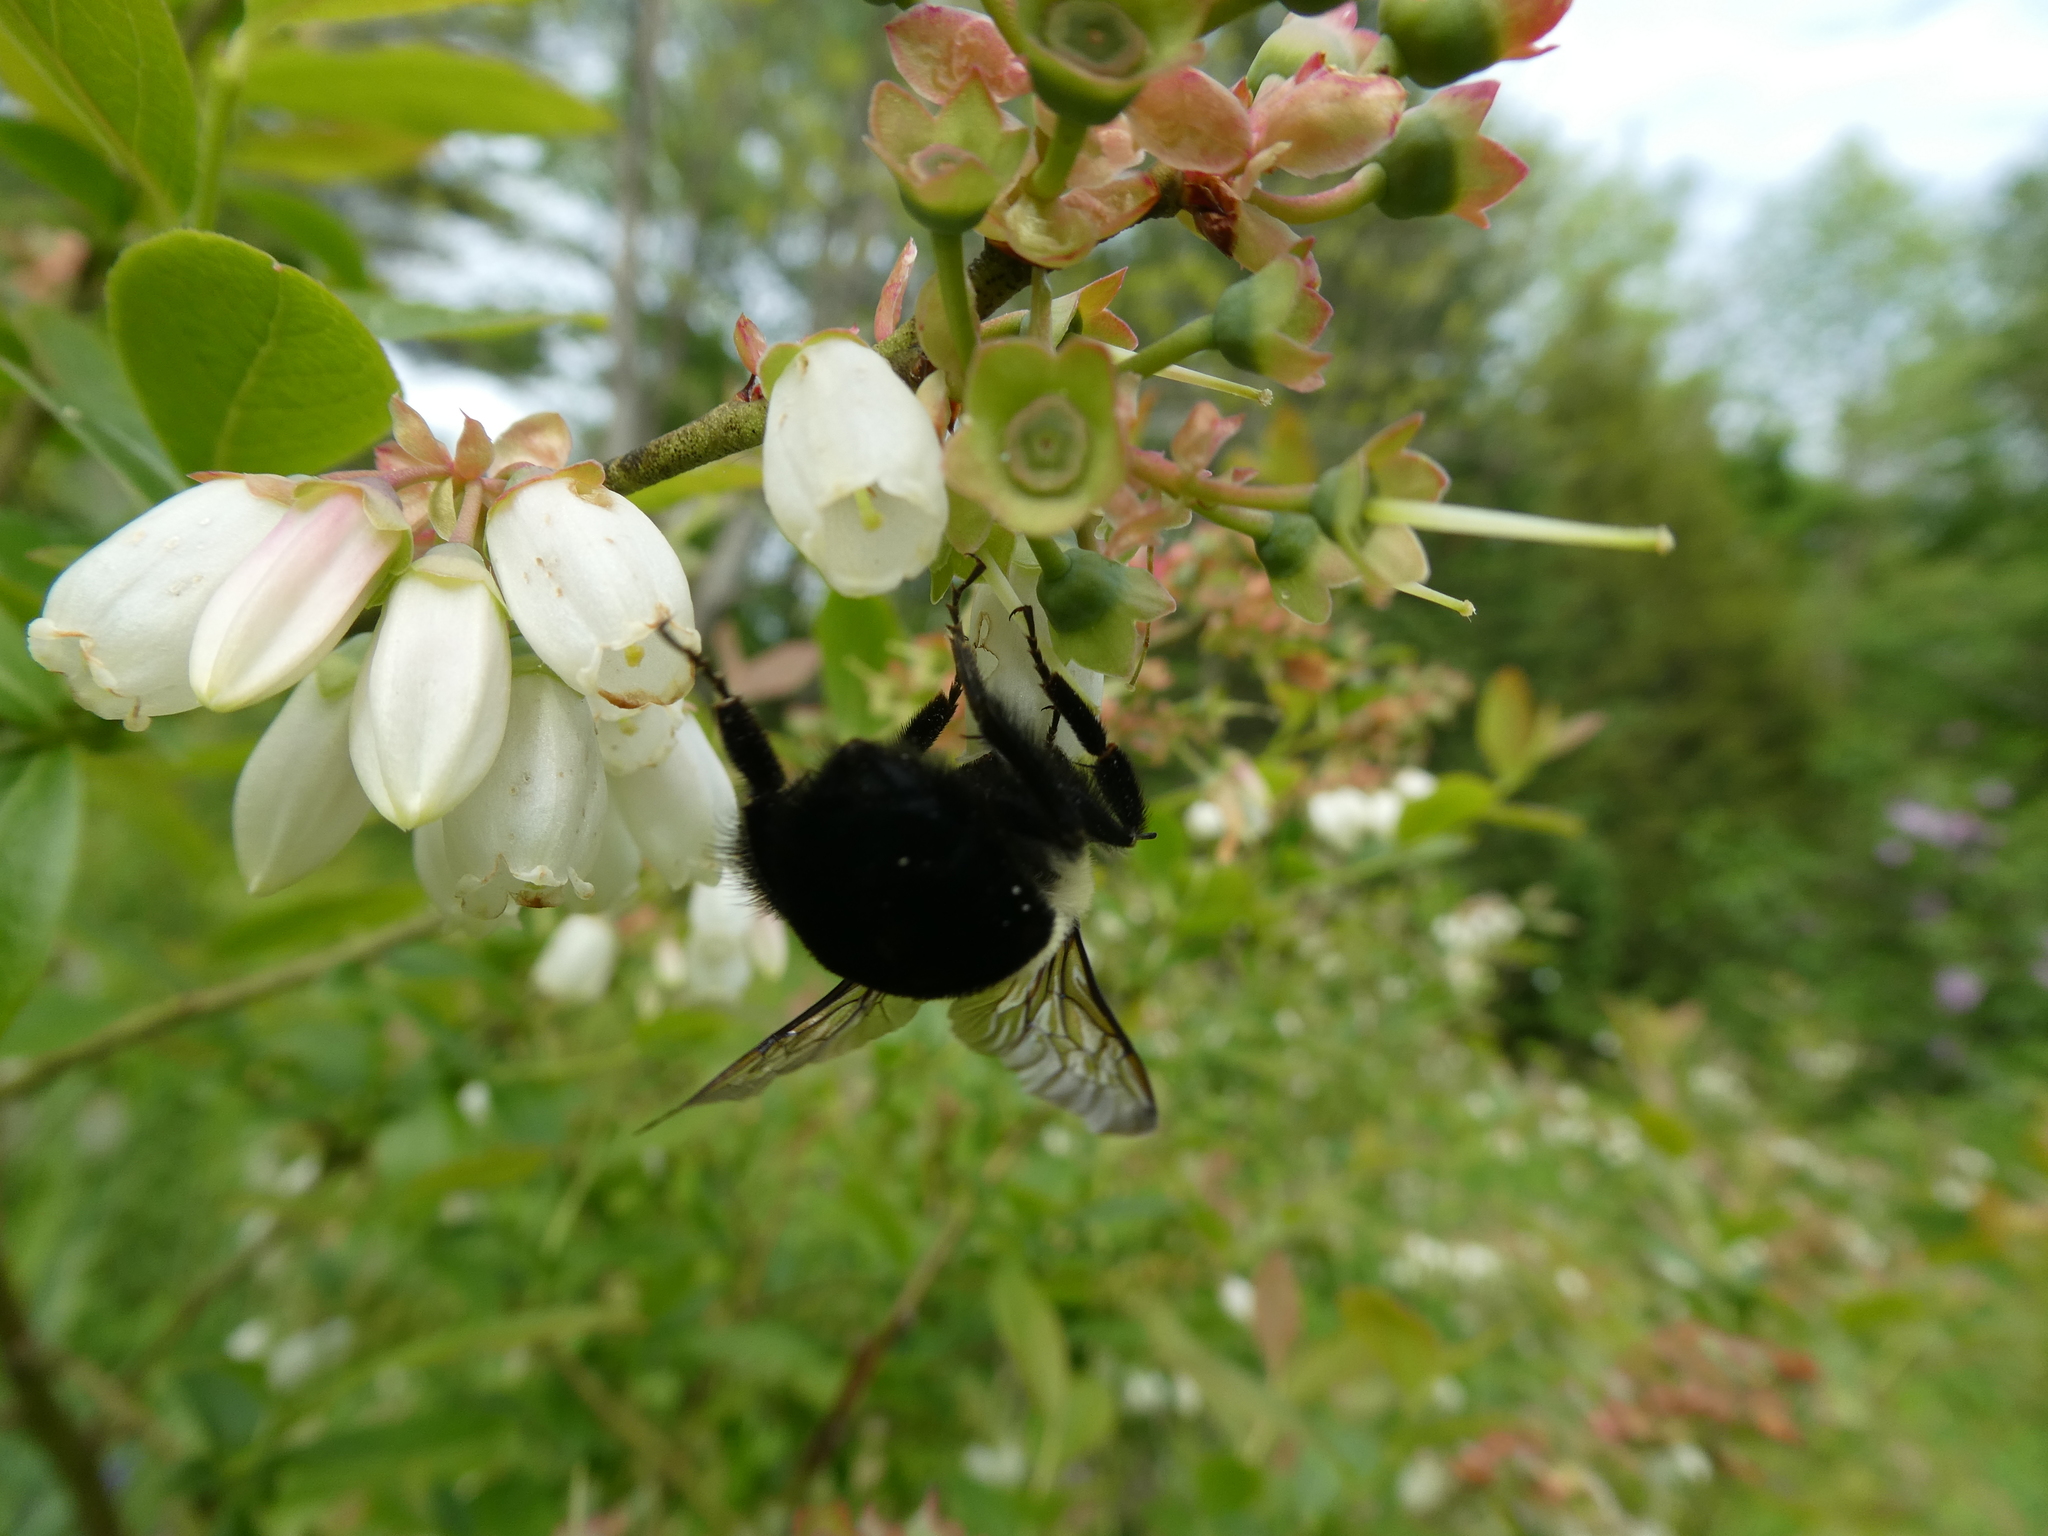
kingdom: Animalia
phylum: Arthropoda
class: Insecta
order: Hymenoptera
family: Apidae
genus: Bombus
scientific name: Bombus impatiens
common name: Common eastern bumble bee
